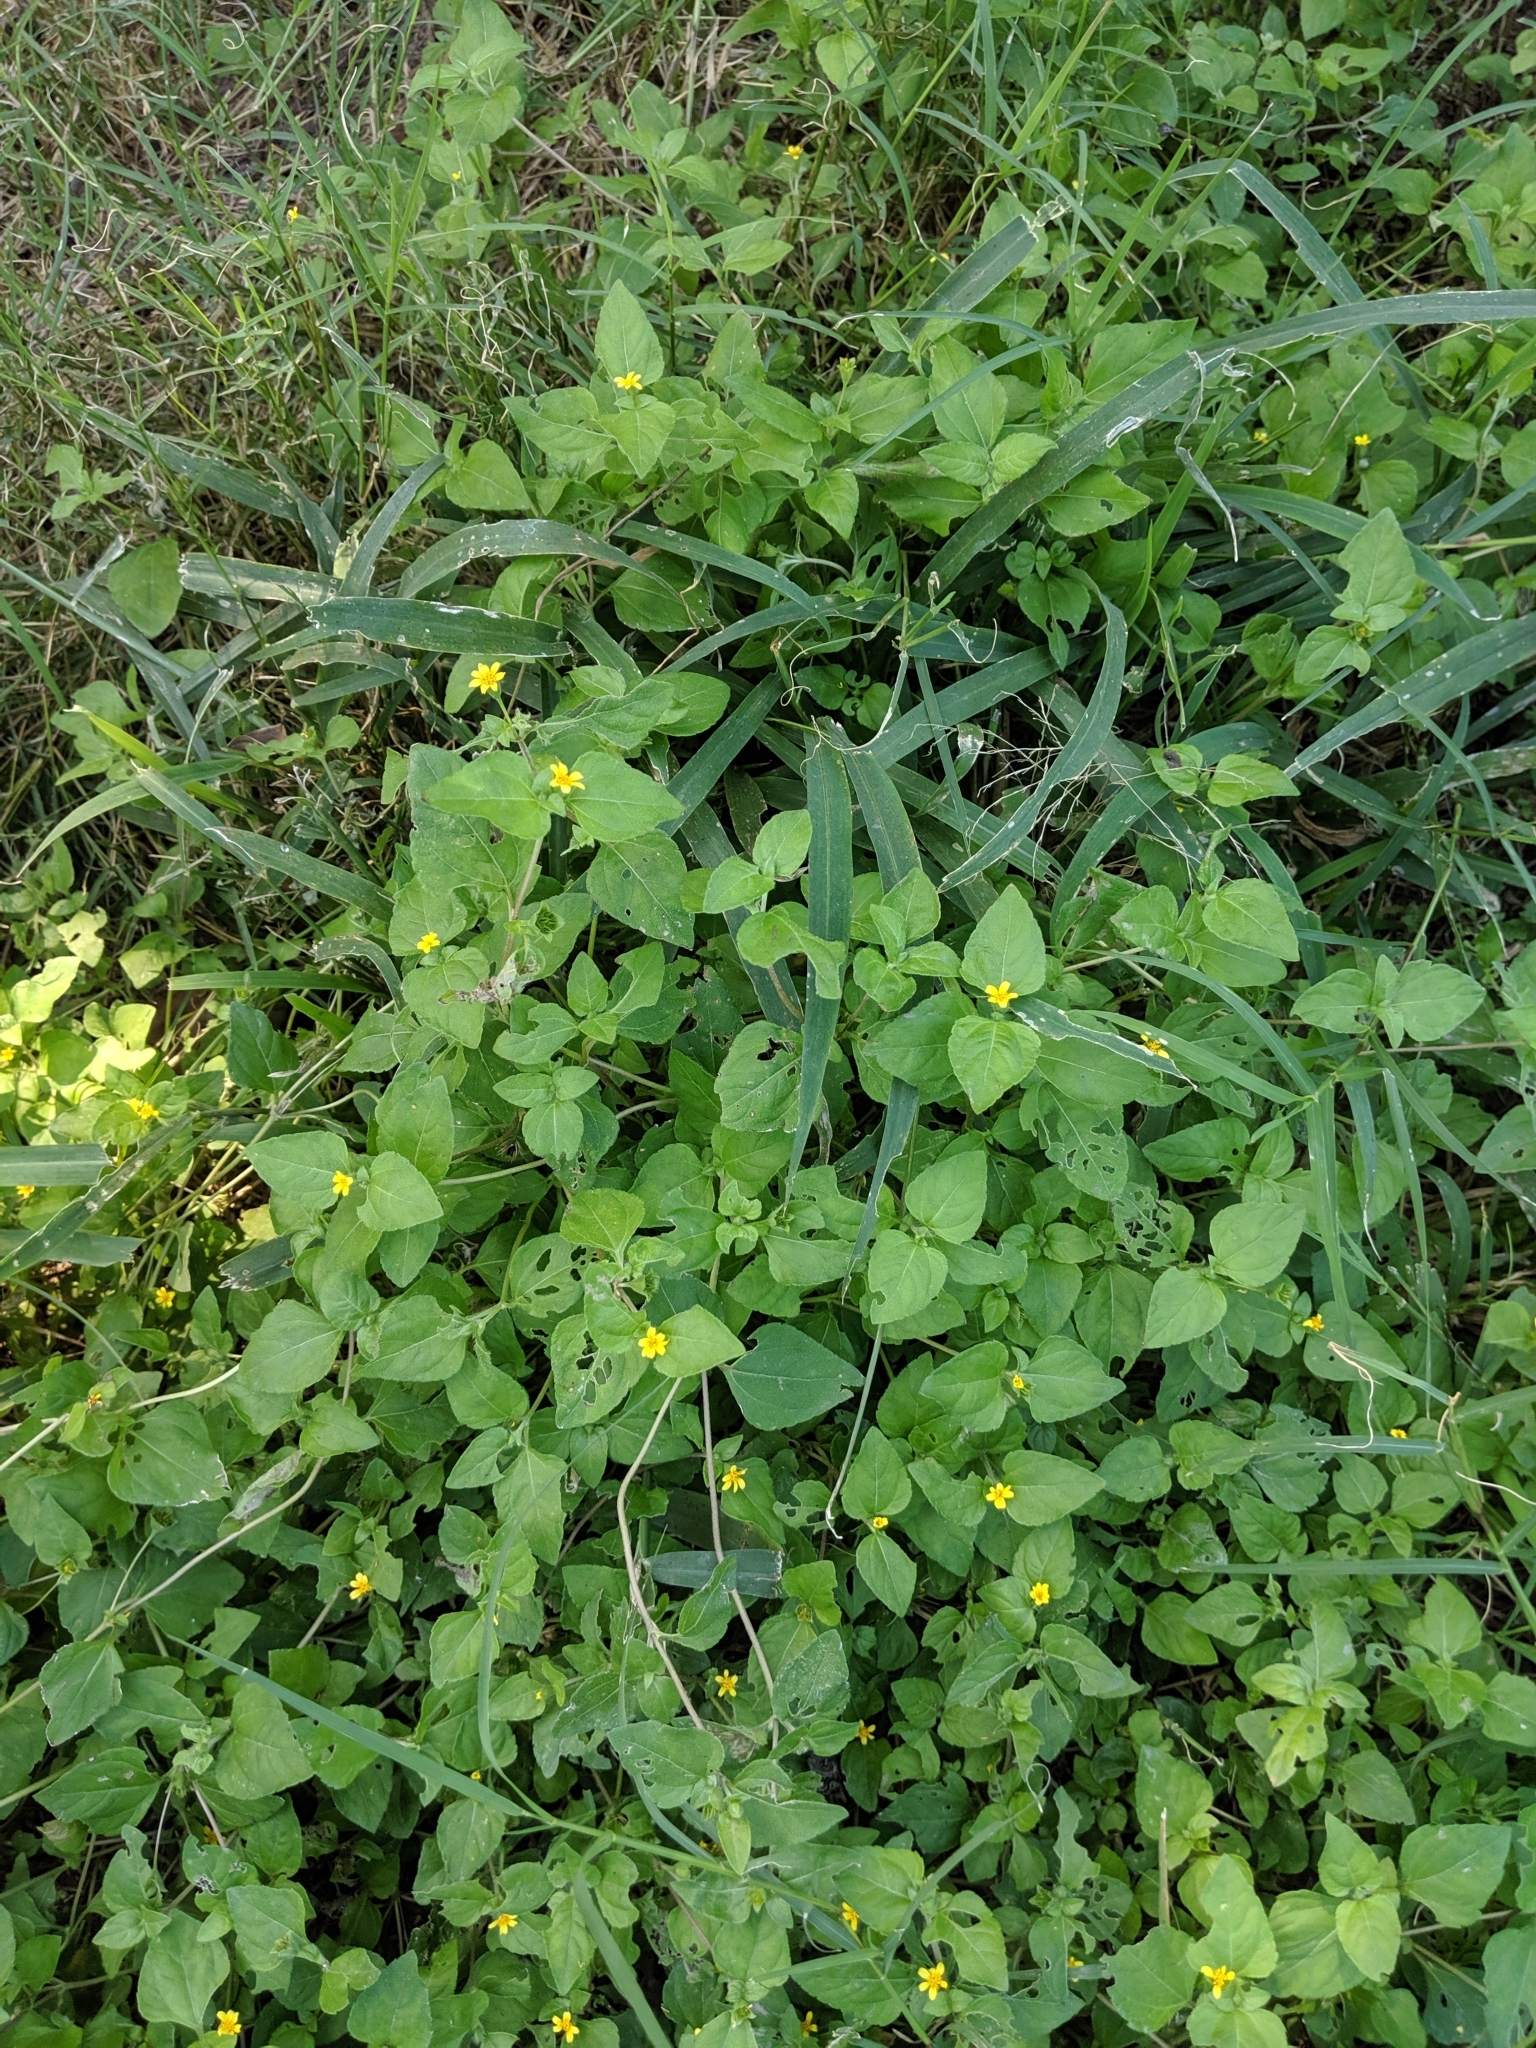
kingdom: Plantae
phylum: Tracheophyta
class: Magnoliopsida
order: Asterales
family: Asteraceae
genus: Calyptocarpus
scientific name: Calyptocarpus vialis
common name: Straggler daisy
